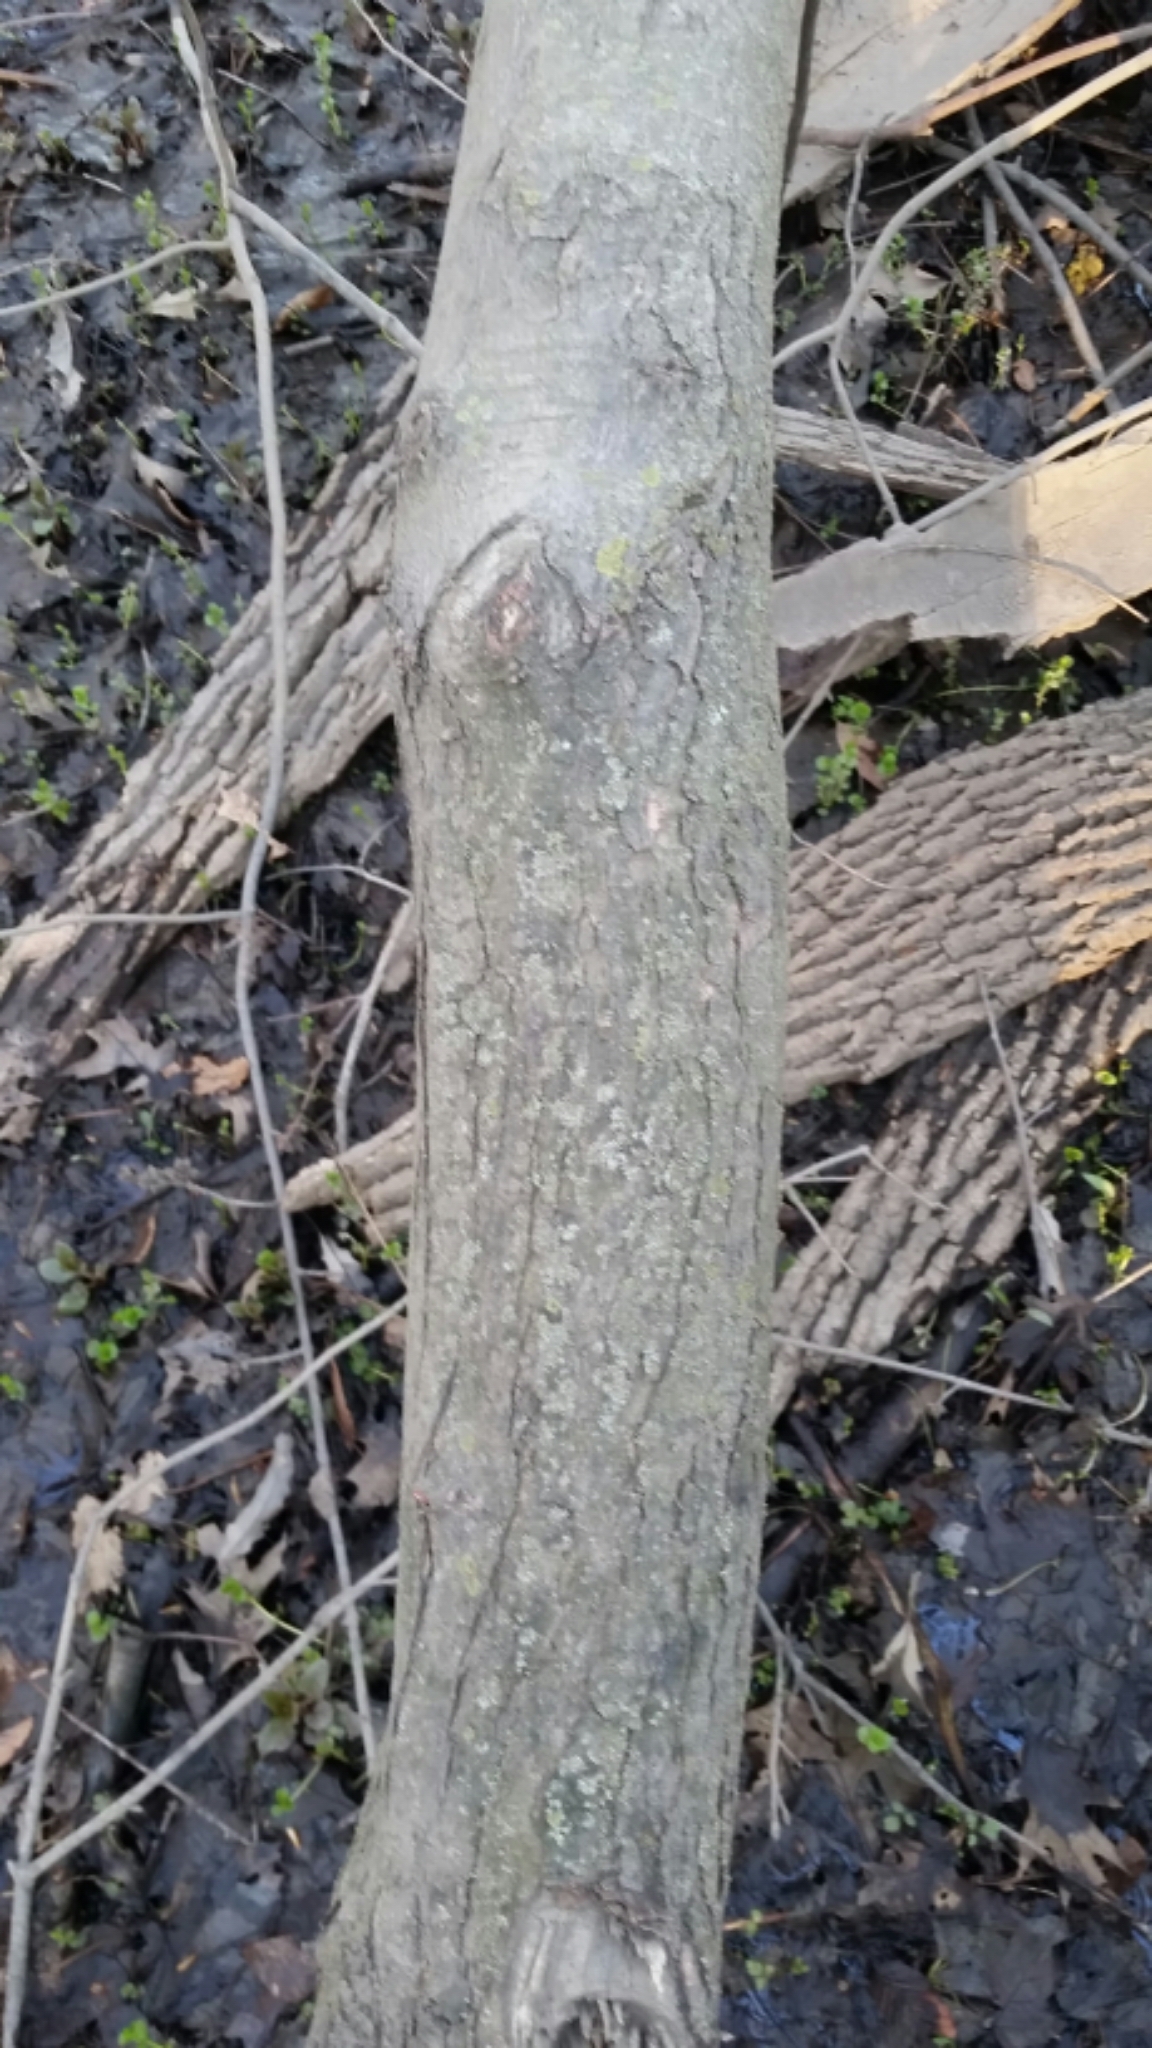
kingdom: Plantae
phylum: Tracheophyta
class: Magnoliopsida
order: Sapindales
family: Sapindaceae
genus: Acer
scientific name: Acer saccharinum
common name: Silver maple
